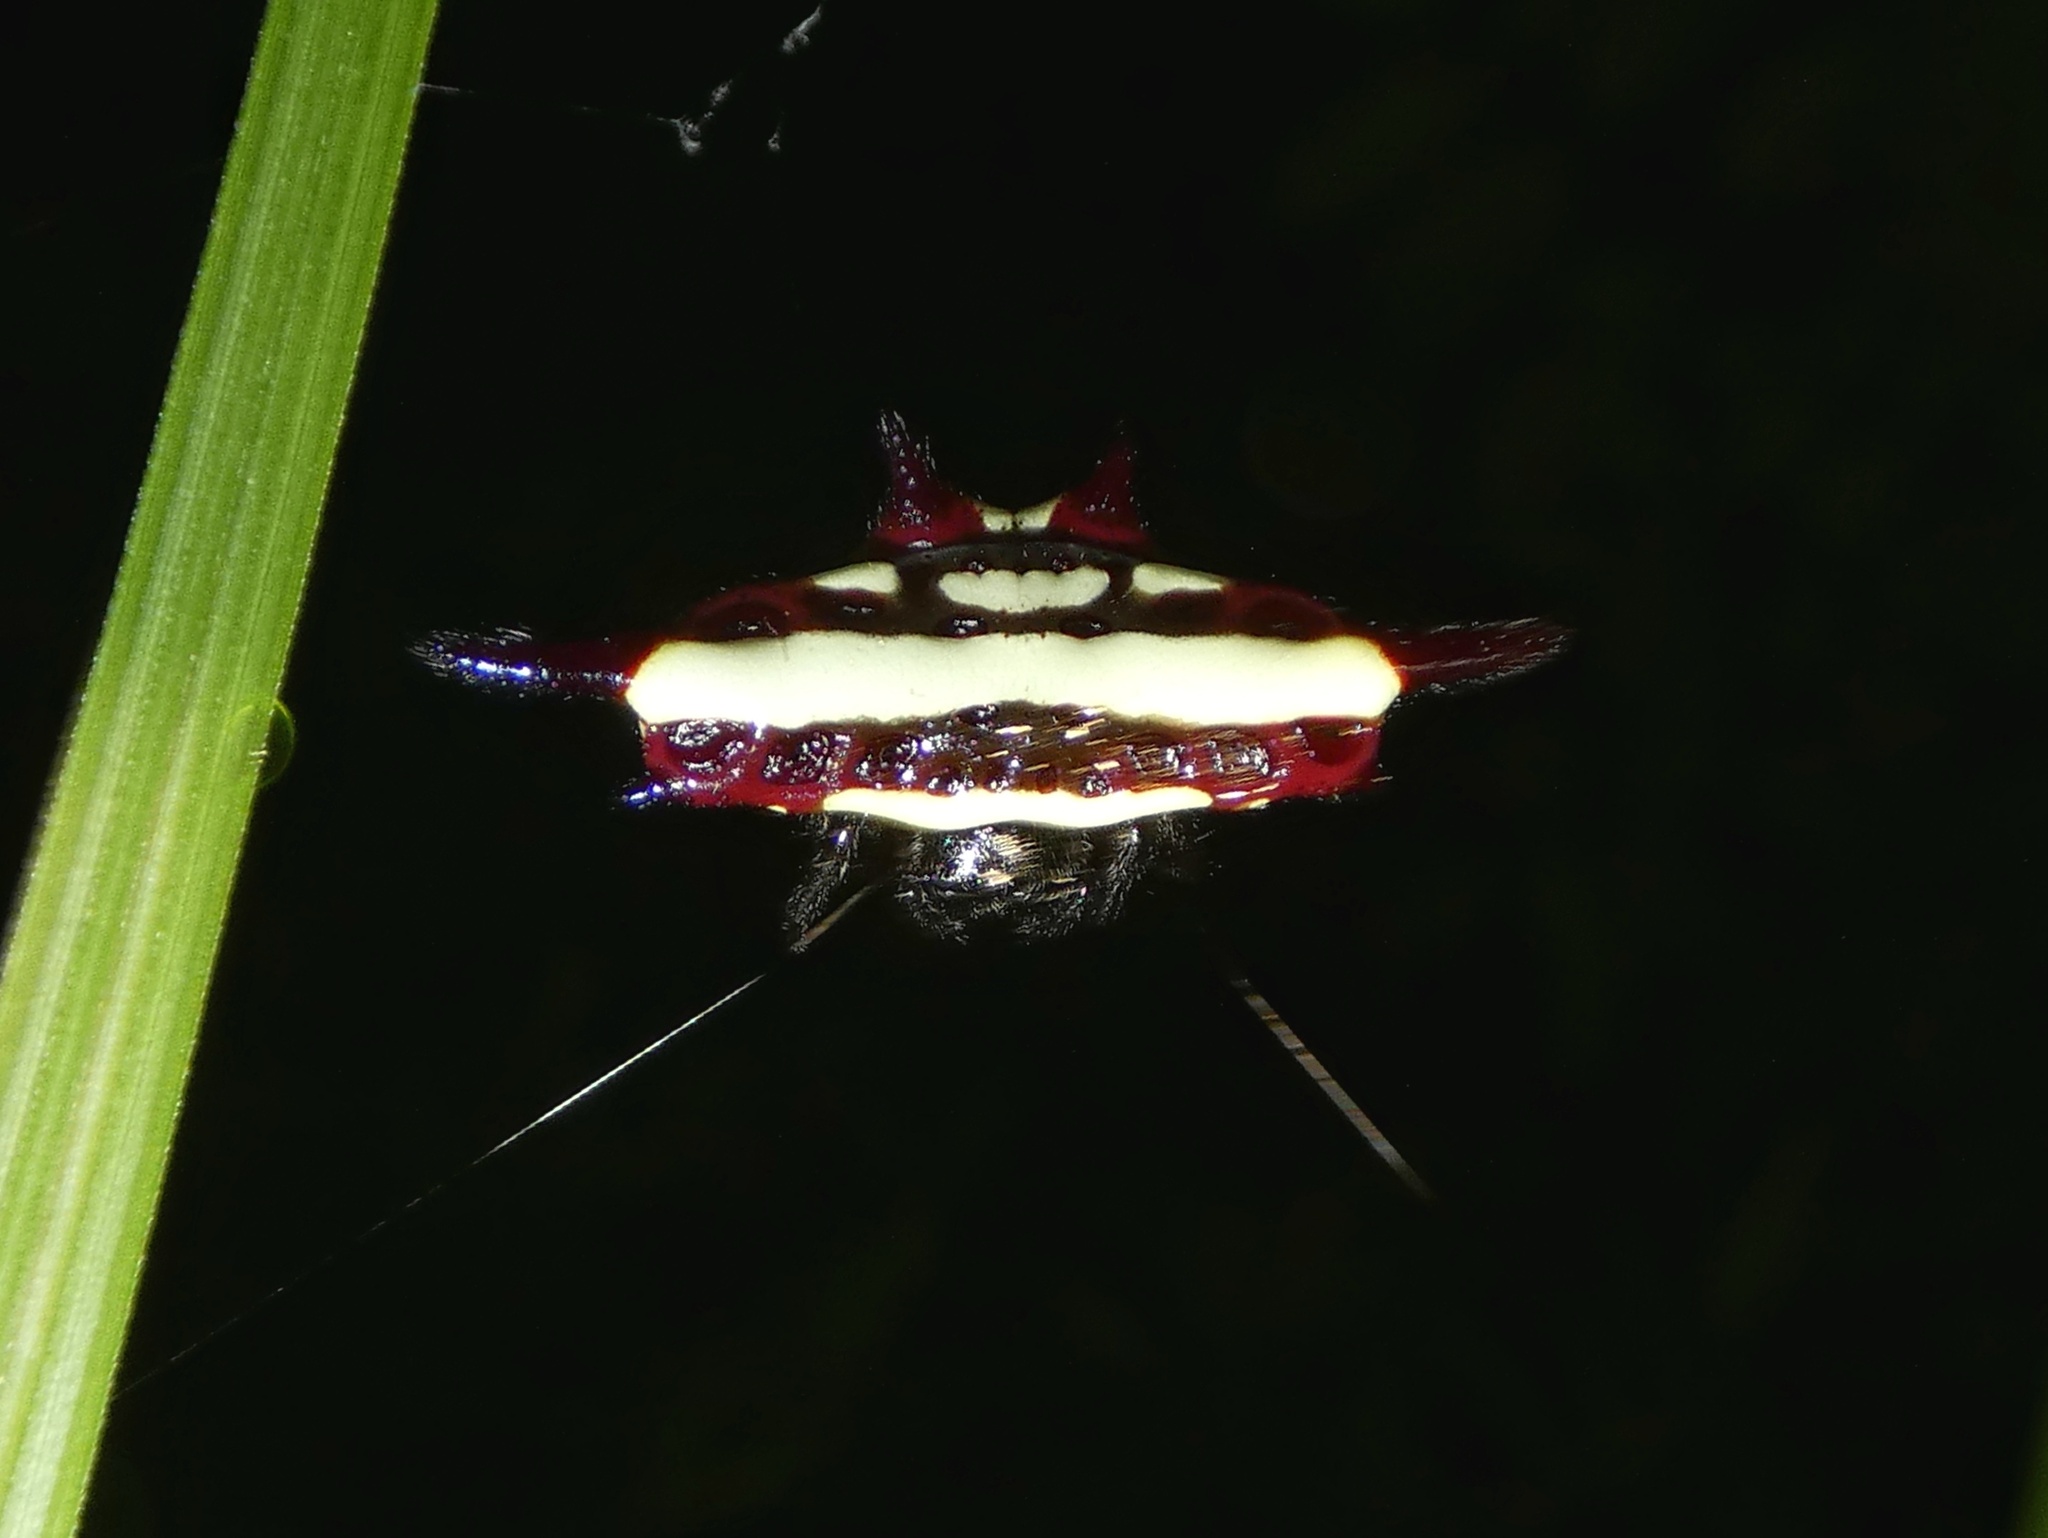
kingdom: Animalia
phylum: Arthropoda
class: Arachnida
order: Araneae
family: Araneidae
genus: Gasteracantha
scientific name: Gasteracantha fornicata
